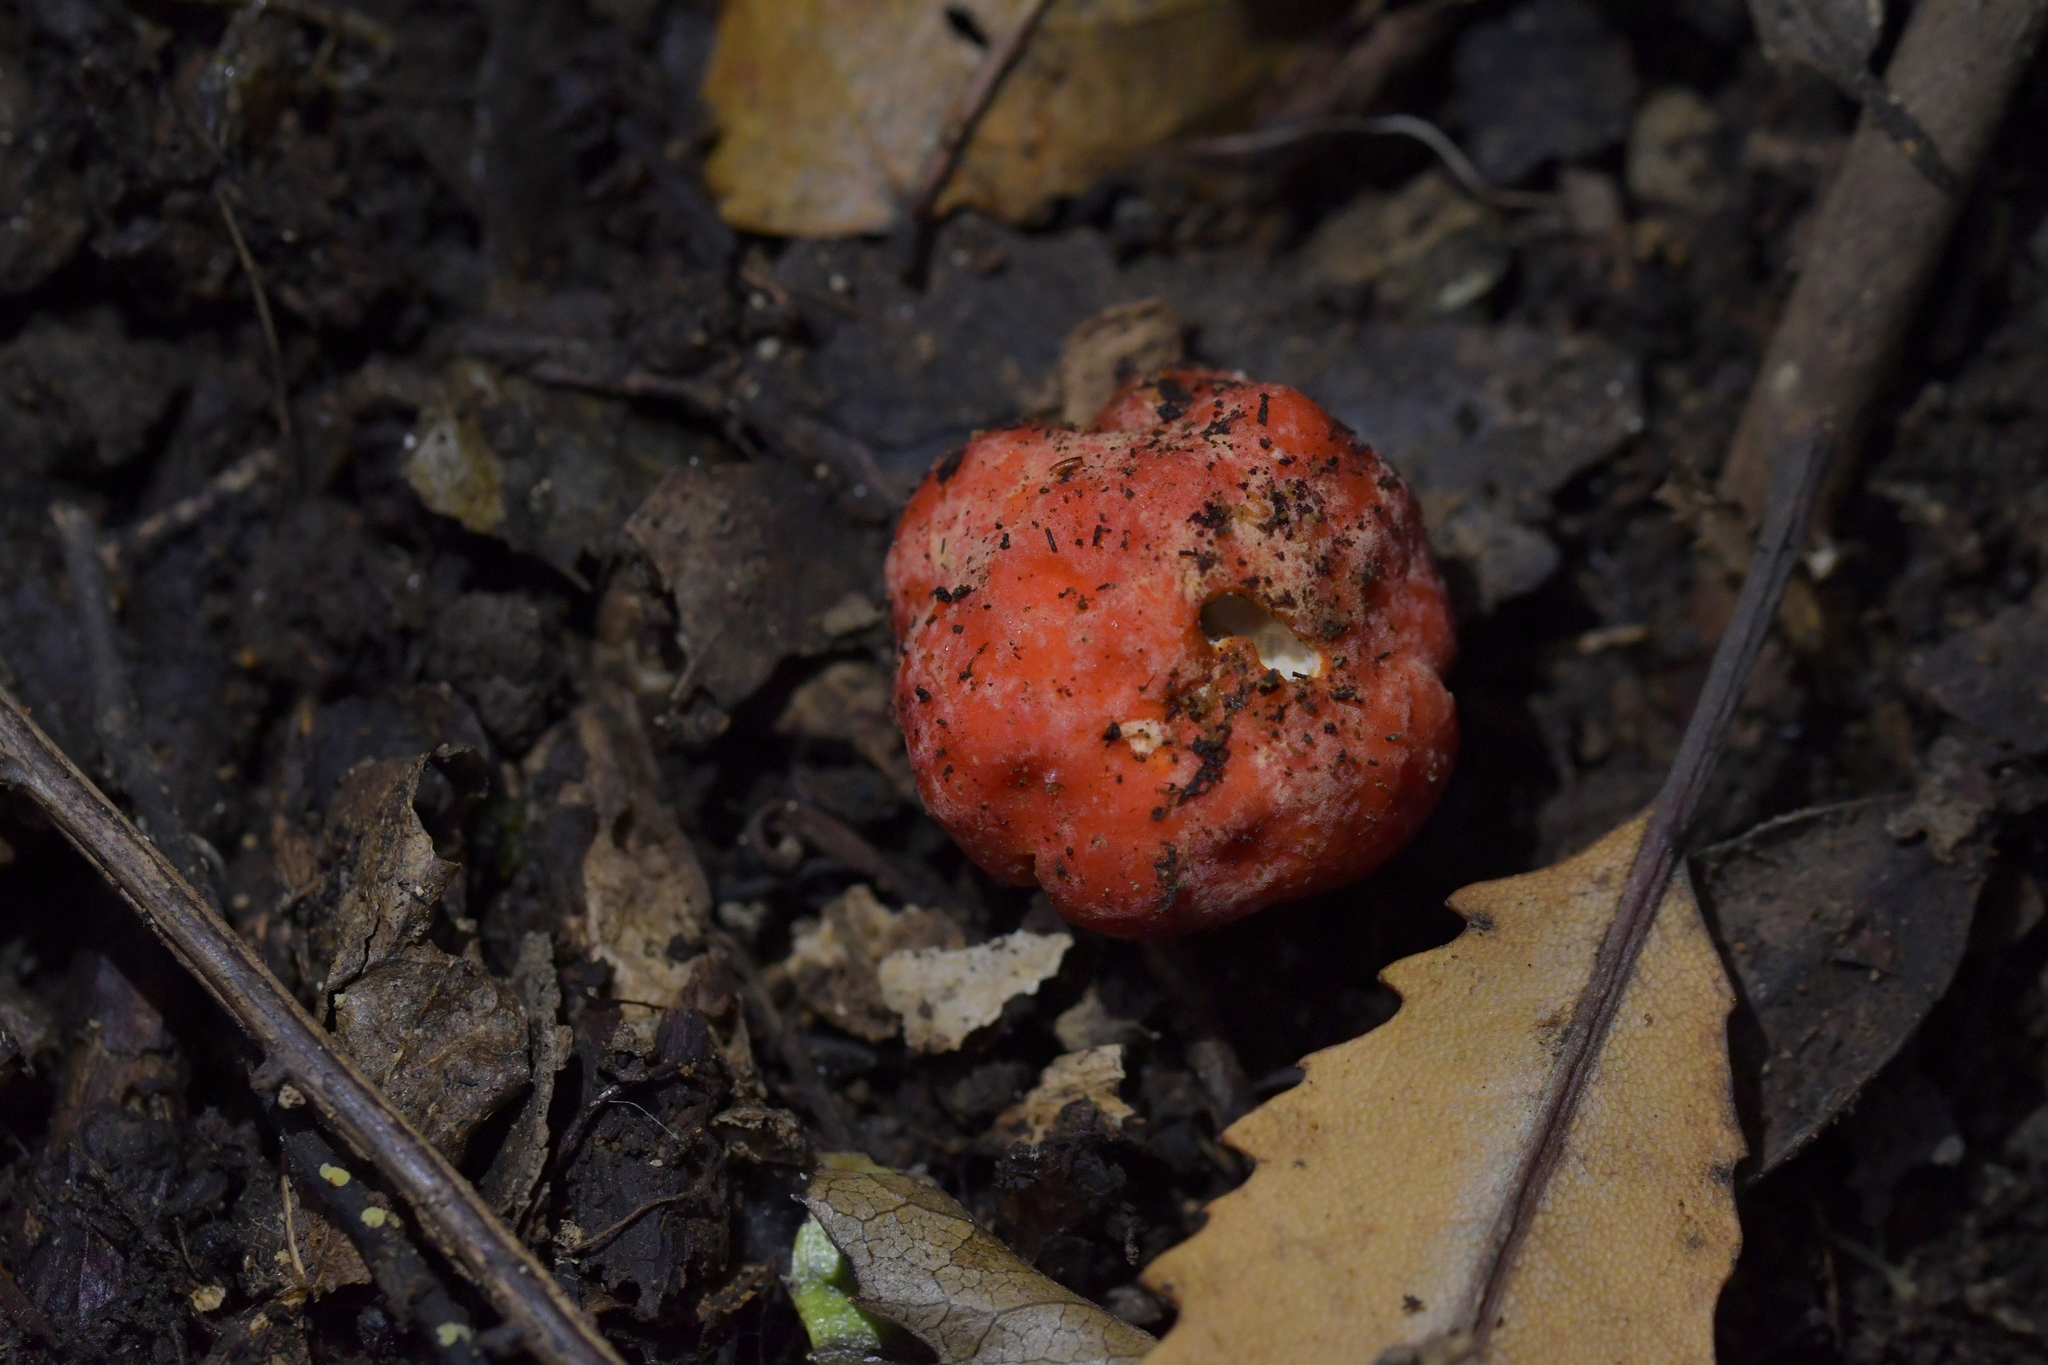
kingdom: Fungi
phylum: Ascomycota
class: Pezizomycetes
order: Pezizales
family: Pyronemataceae
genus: Paurocotylis
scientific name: Paurocotylis pila
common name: Scarlet berry truffle
